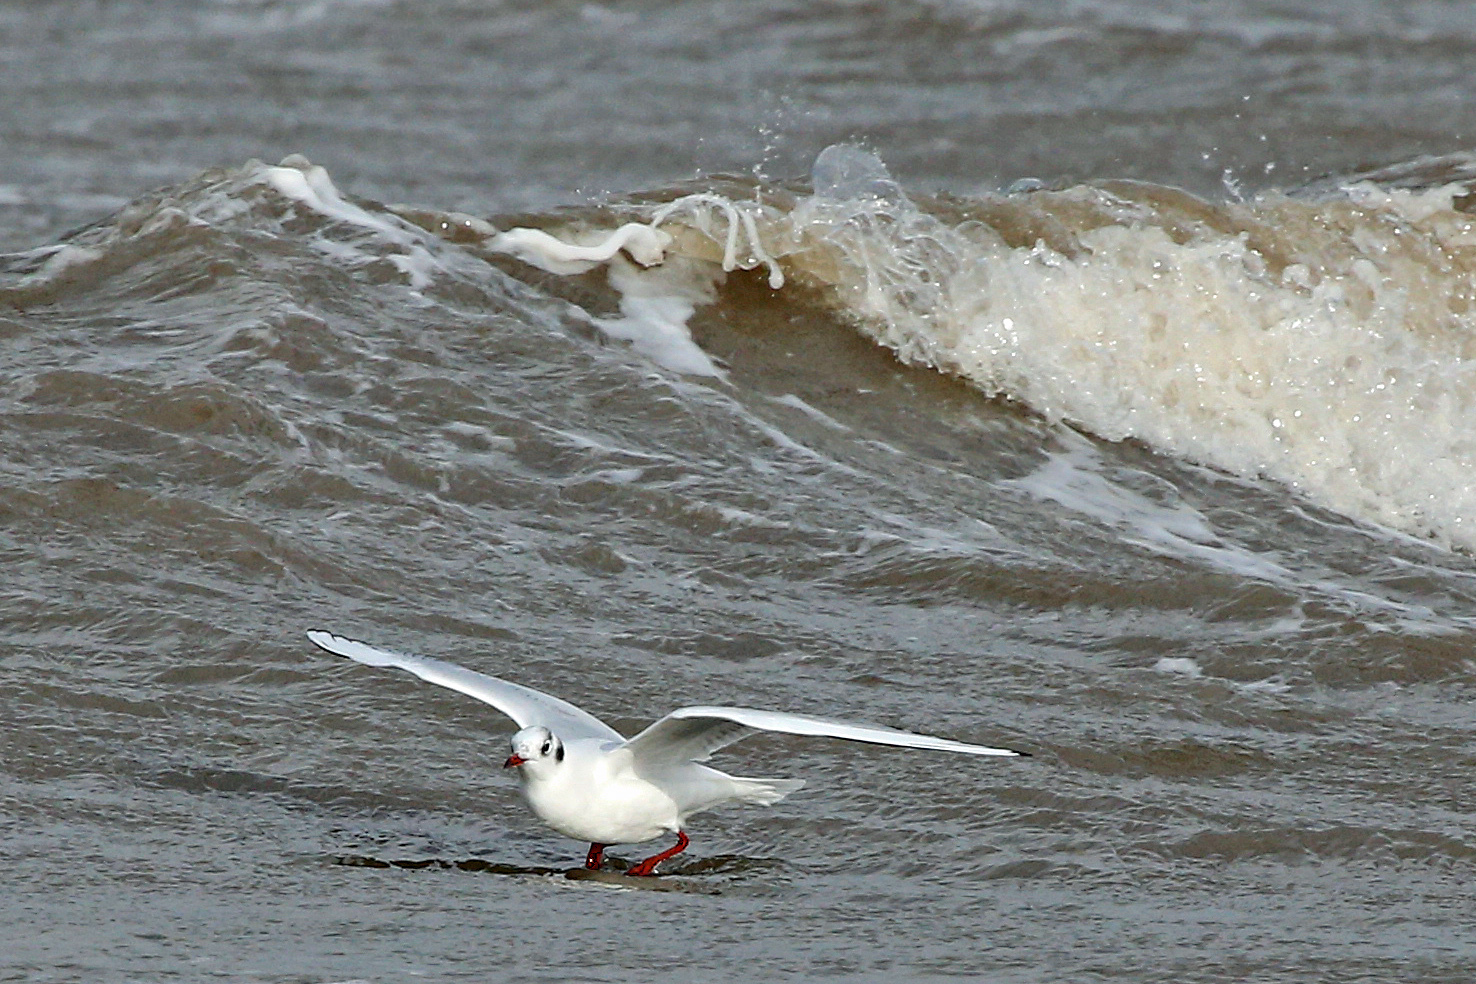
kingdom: Animalia
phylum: Chordata
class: Aves
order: Charadriiformes
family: Laridae
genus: Chroicocephalus
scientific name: Chroicocephalus ridibundus
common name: Black-headed gull
